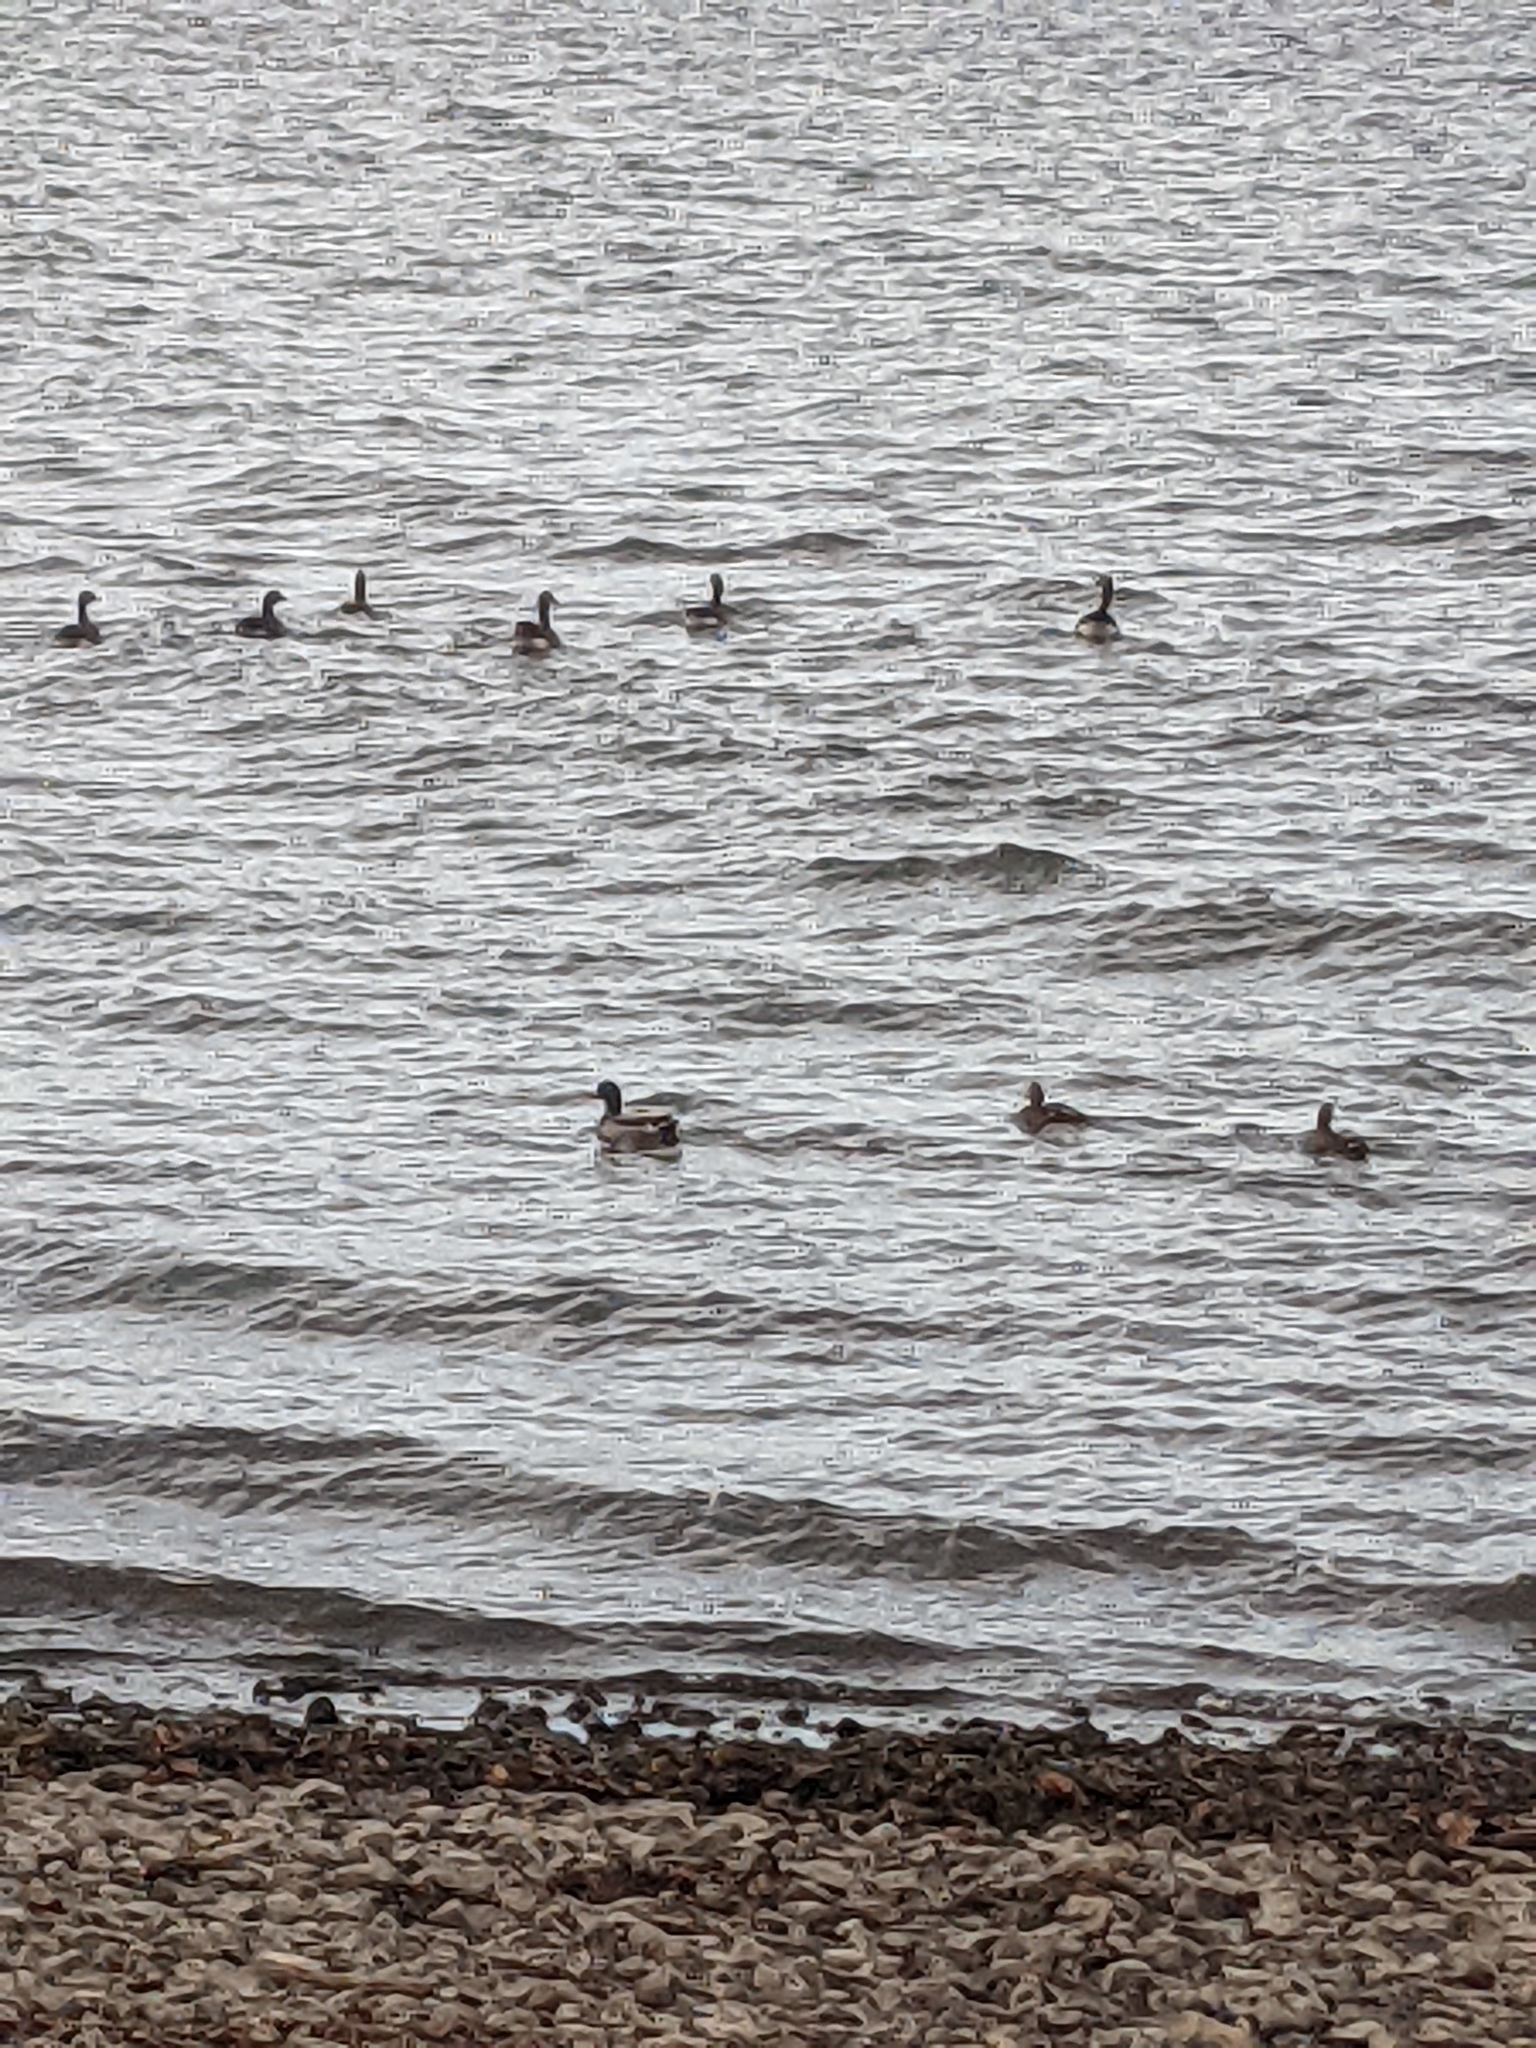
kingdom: Animalia
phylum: Chordata
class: Aves
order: Anseriformes
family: Anatidae
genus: Anas
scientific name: Anas platyrhynchos
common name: Mallard
